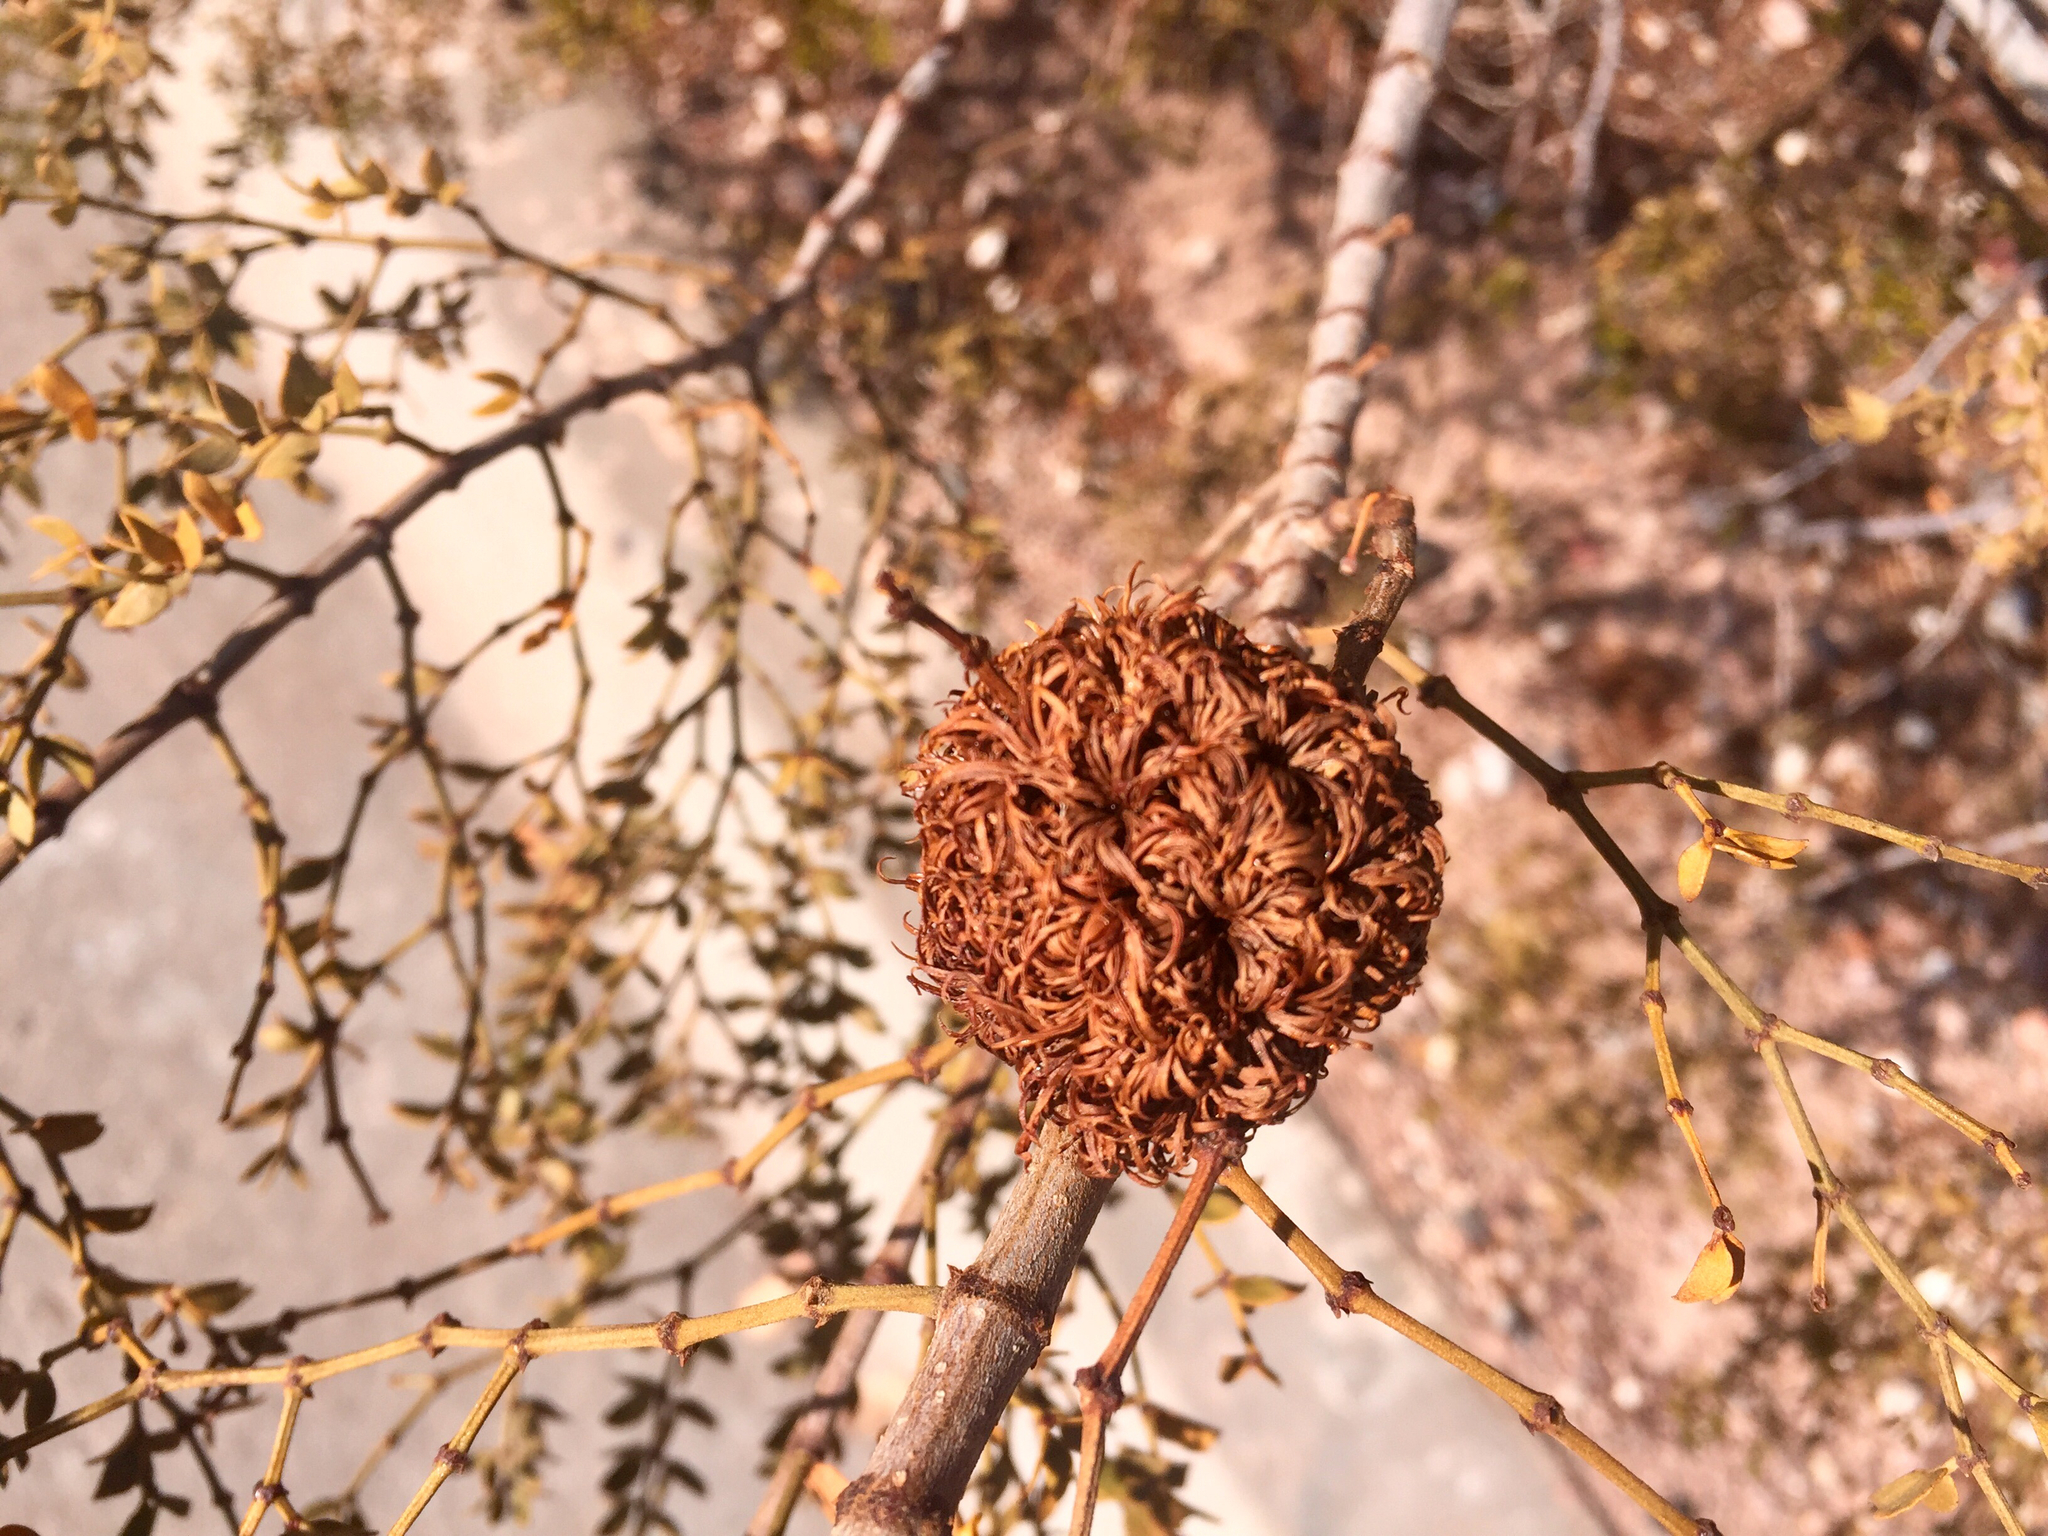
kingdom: Animalia
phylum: Arthropoda
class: Insecta
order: Diptera
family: Cecidomyiidae
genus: Asphondylia
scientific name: Asphondylia auripila
